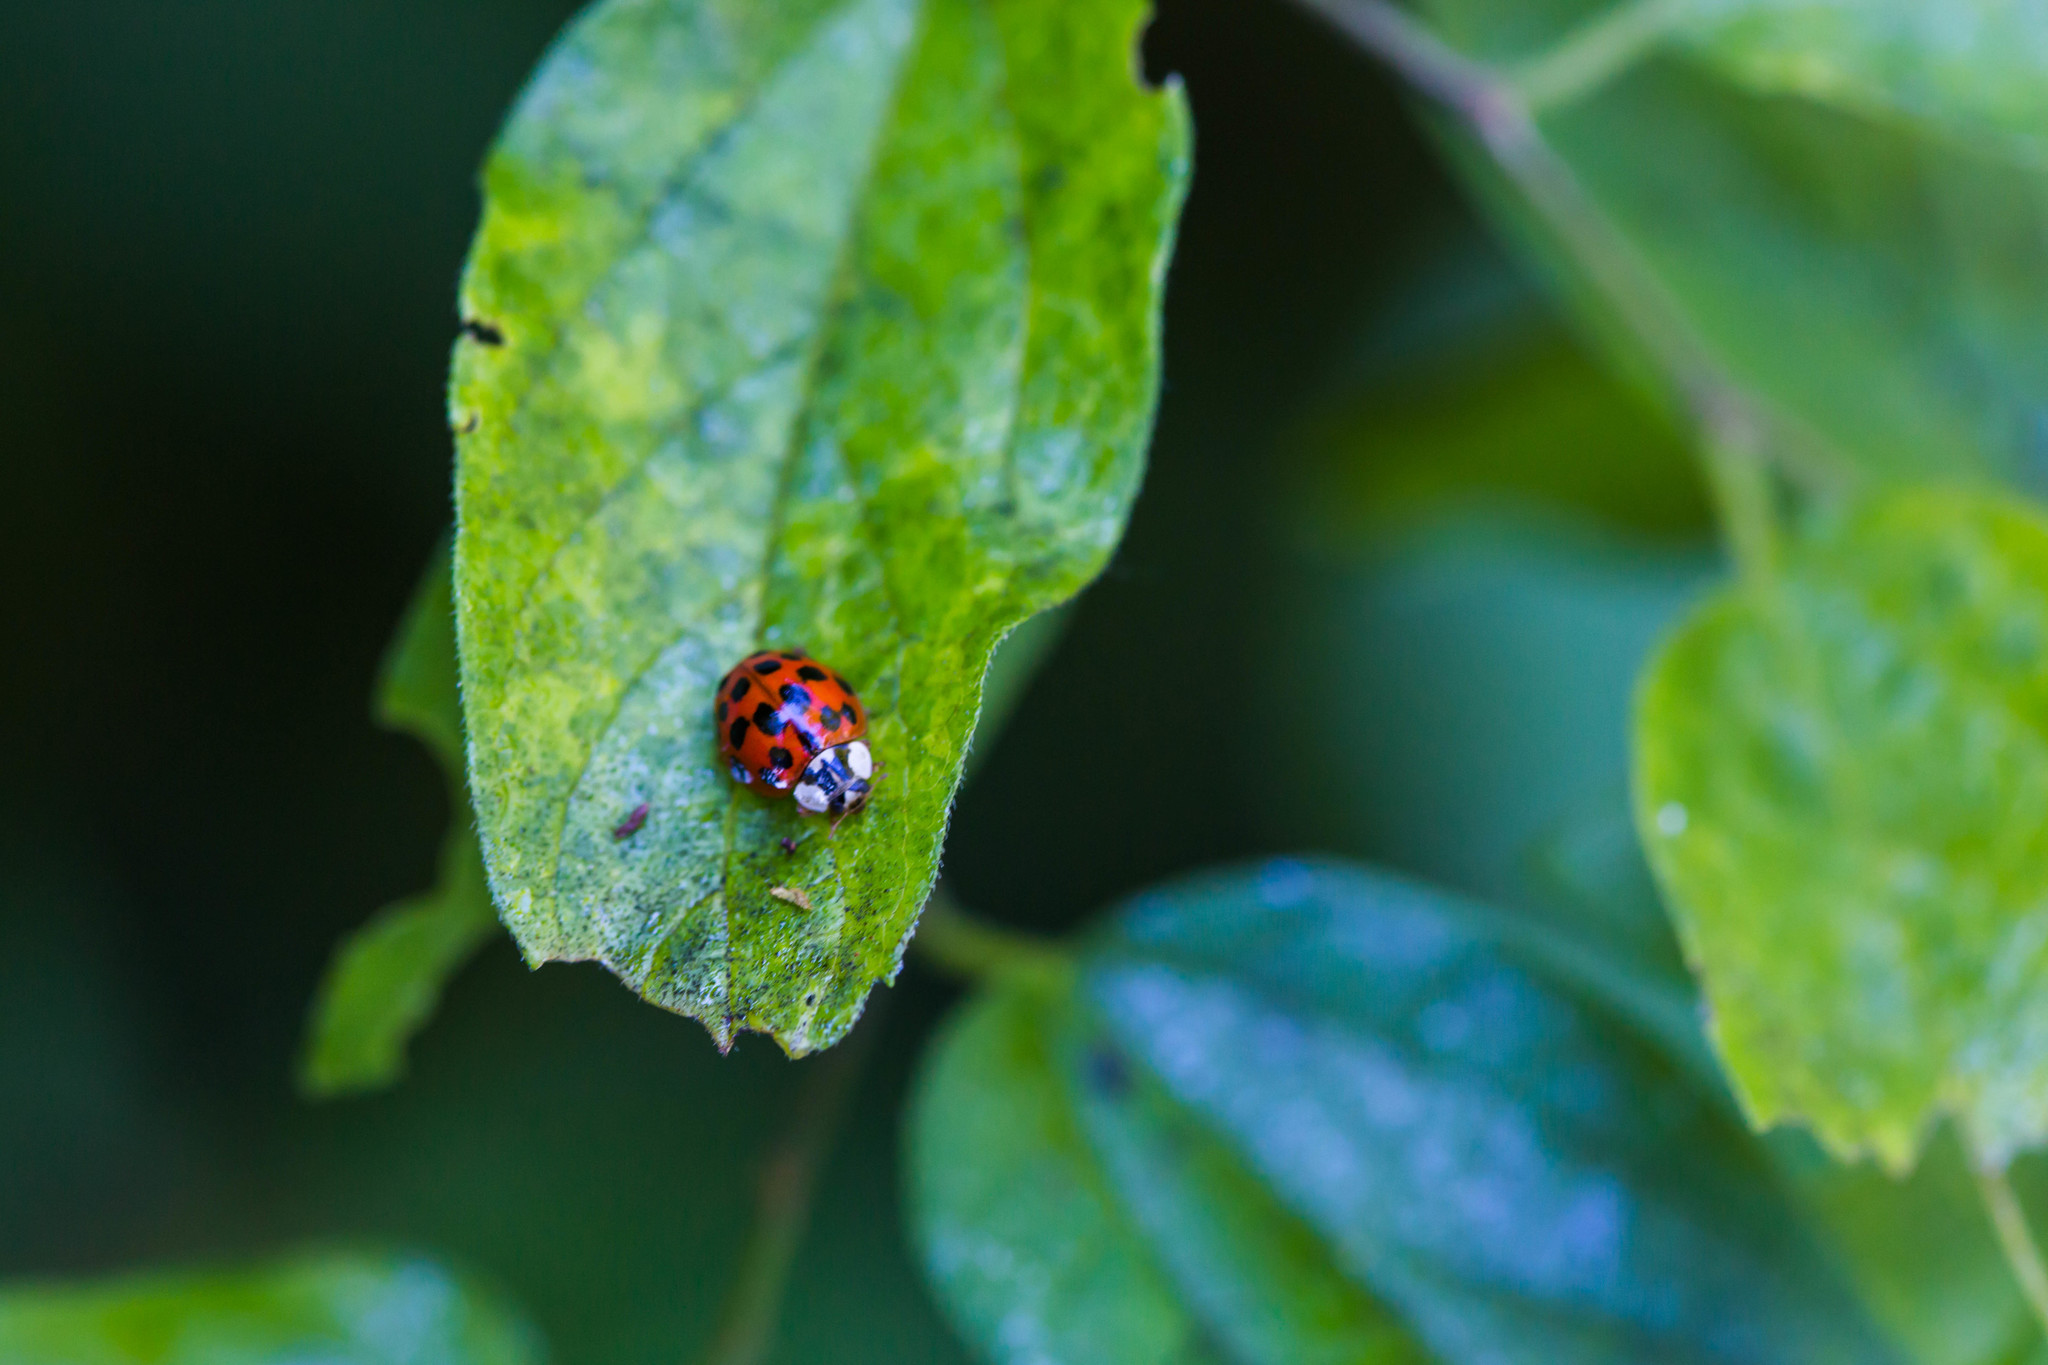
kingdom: Animalia
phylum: Arthropoda
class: Insecta
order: Coleoptera
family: Coccinellidae
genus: Harmonia
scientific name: Harmonia axyridis
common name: Harlequin ladybird
